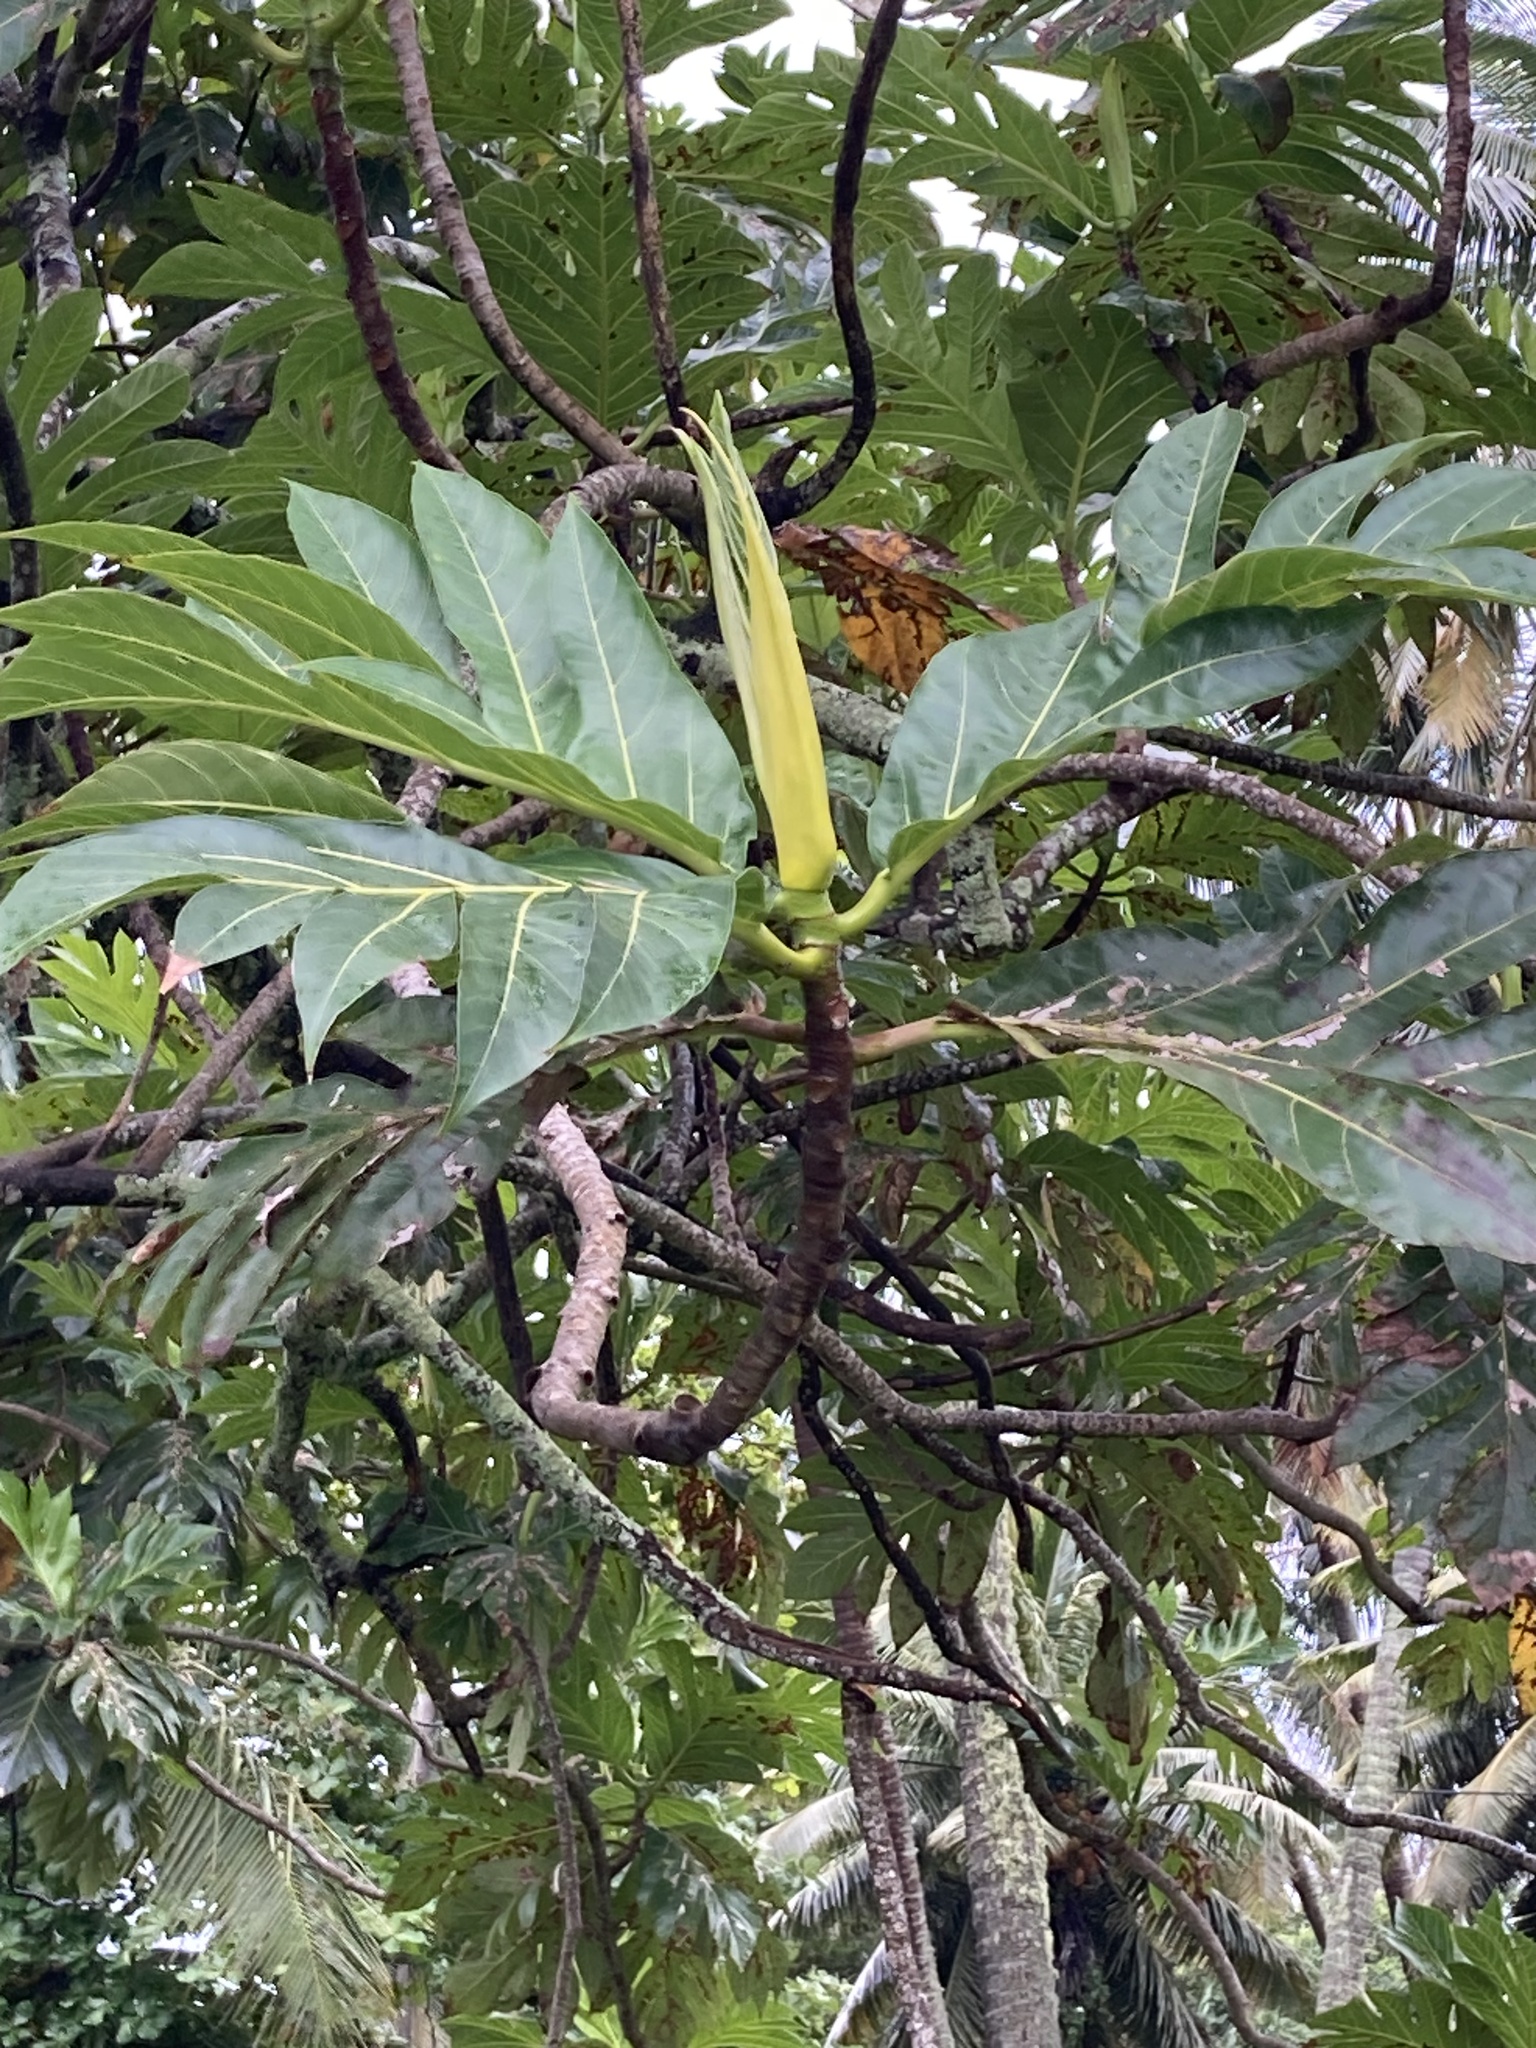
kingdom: Plantae
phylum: Tracheophyta
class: Magnoliopsida
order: Rosales
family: Moraceae
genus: Artocarpus
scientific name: Artocarpus altilis
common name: Breadfruit
